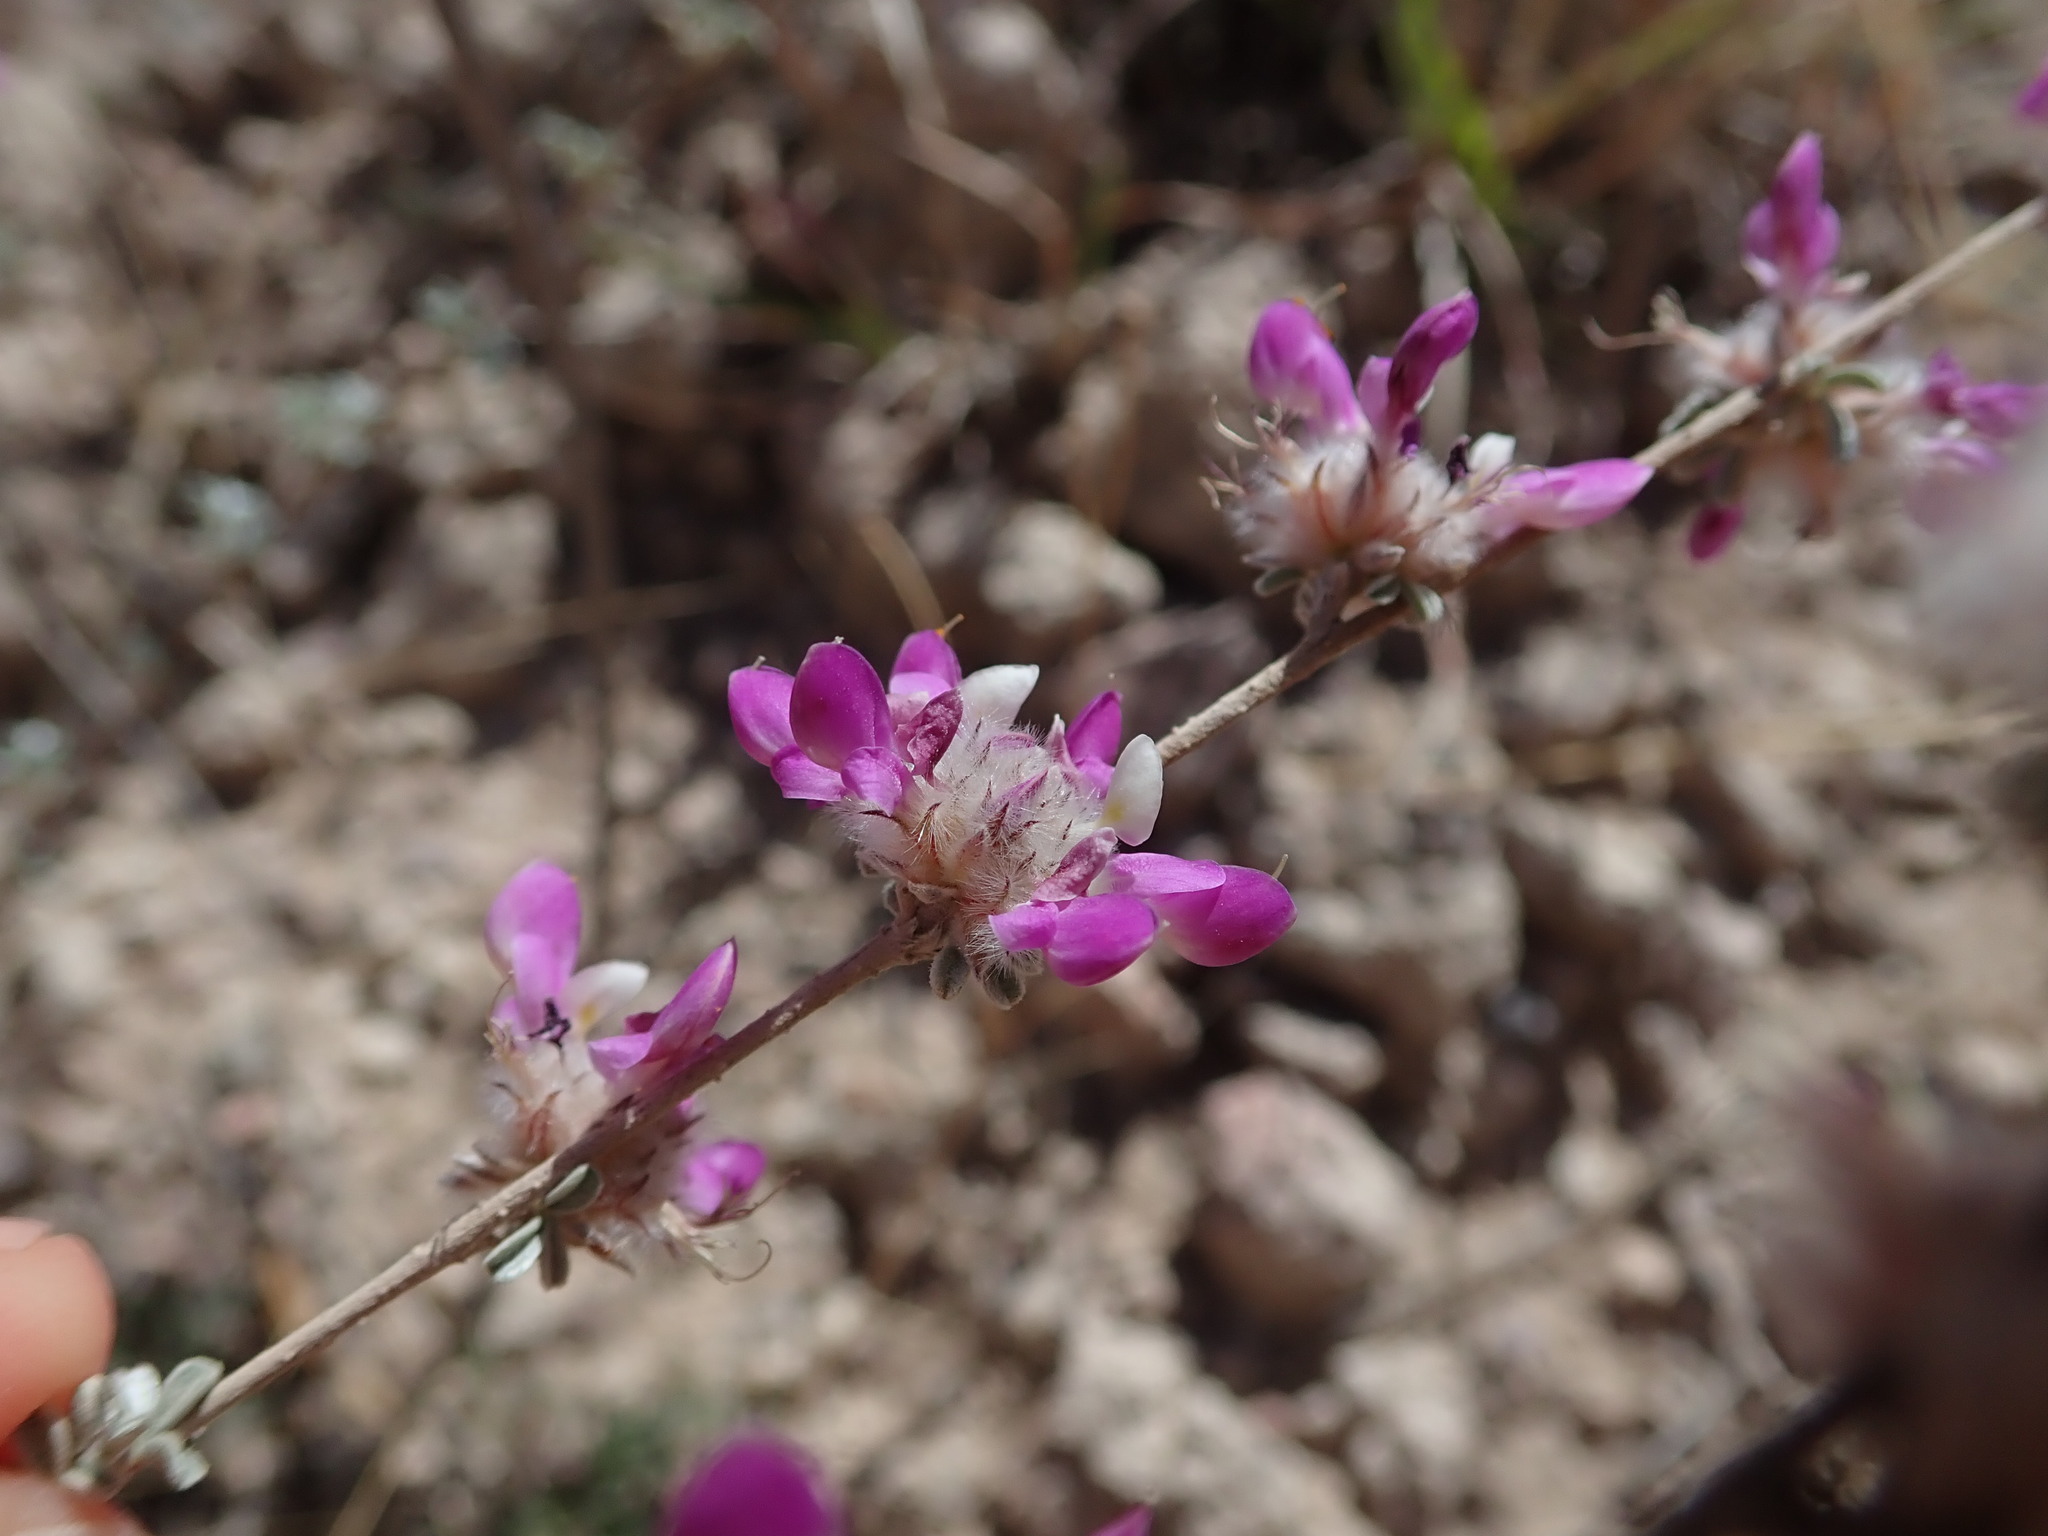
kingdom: Plantae
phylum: Tracheophyta
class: Magnoliopsida
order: Fabales
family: Fabaceae
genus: Dalea
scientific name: Dalea pulchra
